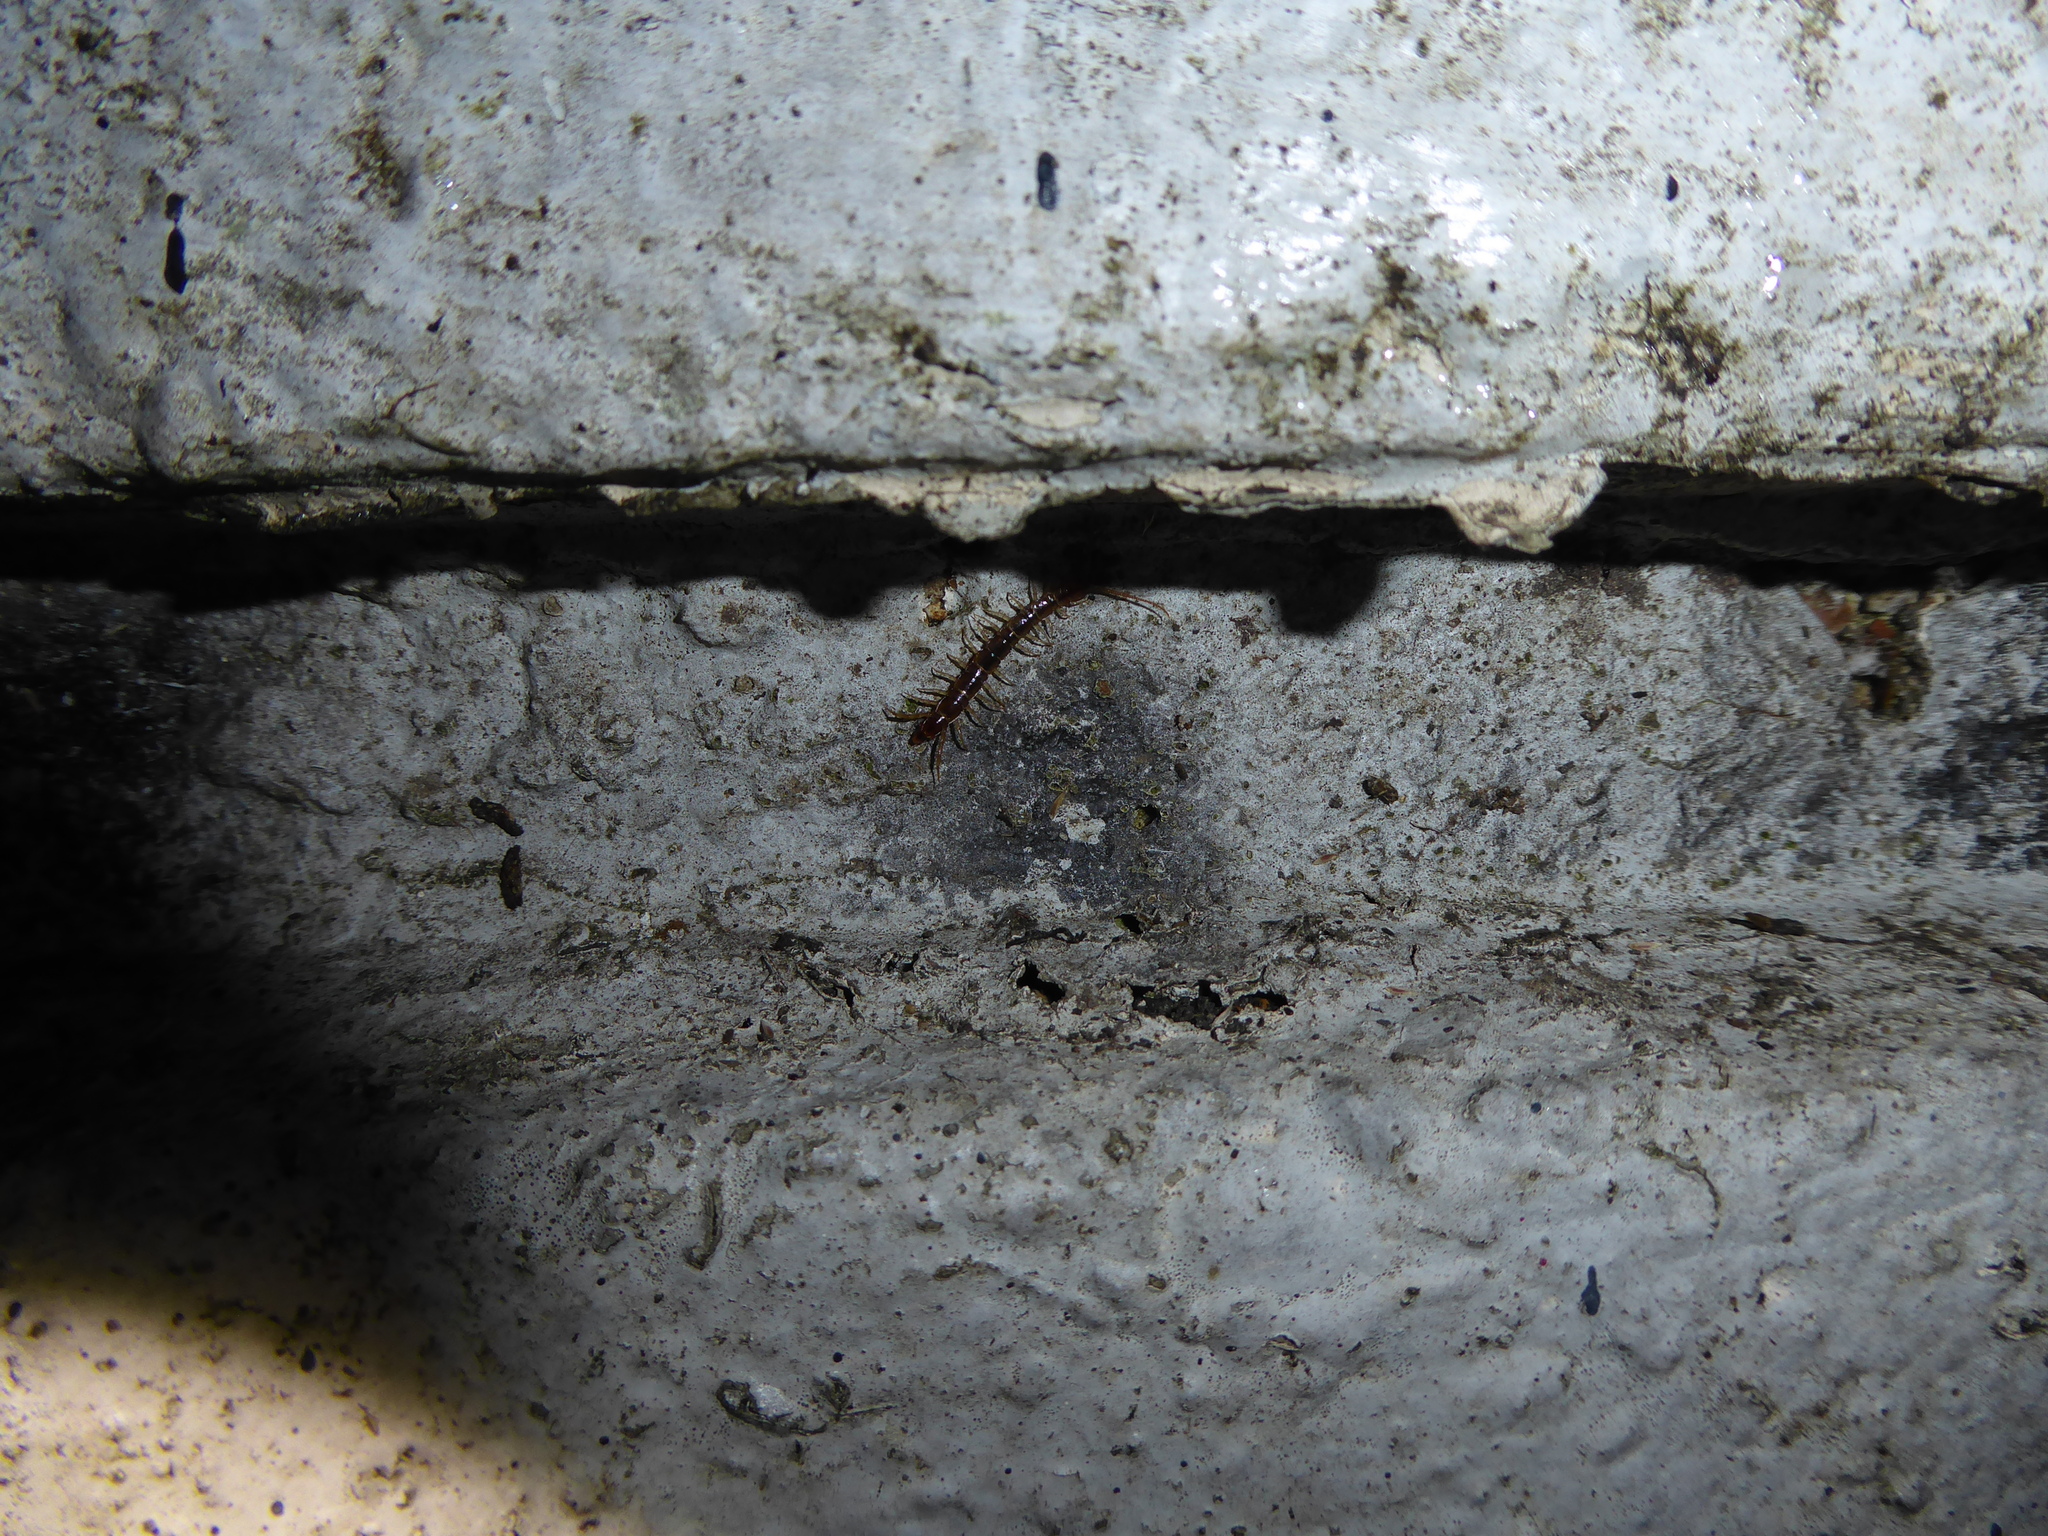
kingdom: Animalia
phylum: Arthropoda
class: Chilopoda
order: Lithobiomorpha
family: Lithobiidae
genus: Lithobius
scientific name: Lithobius
